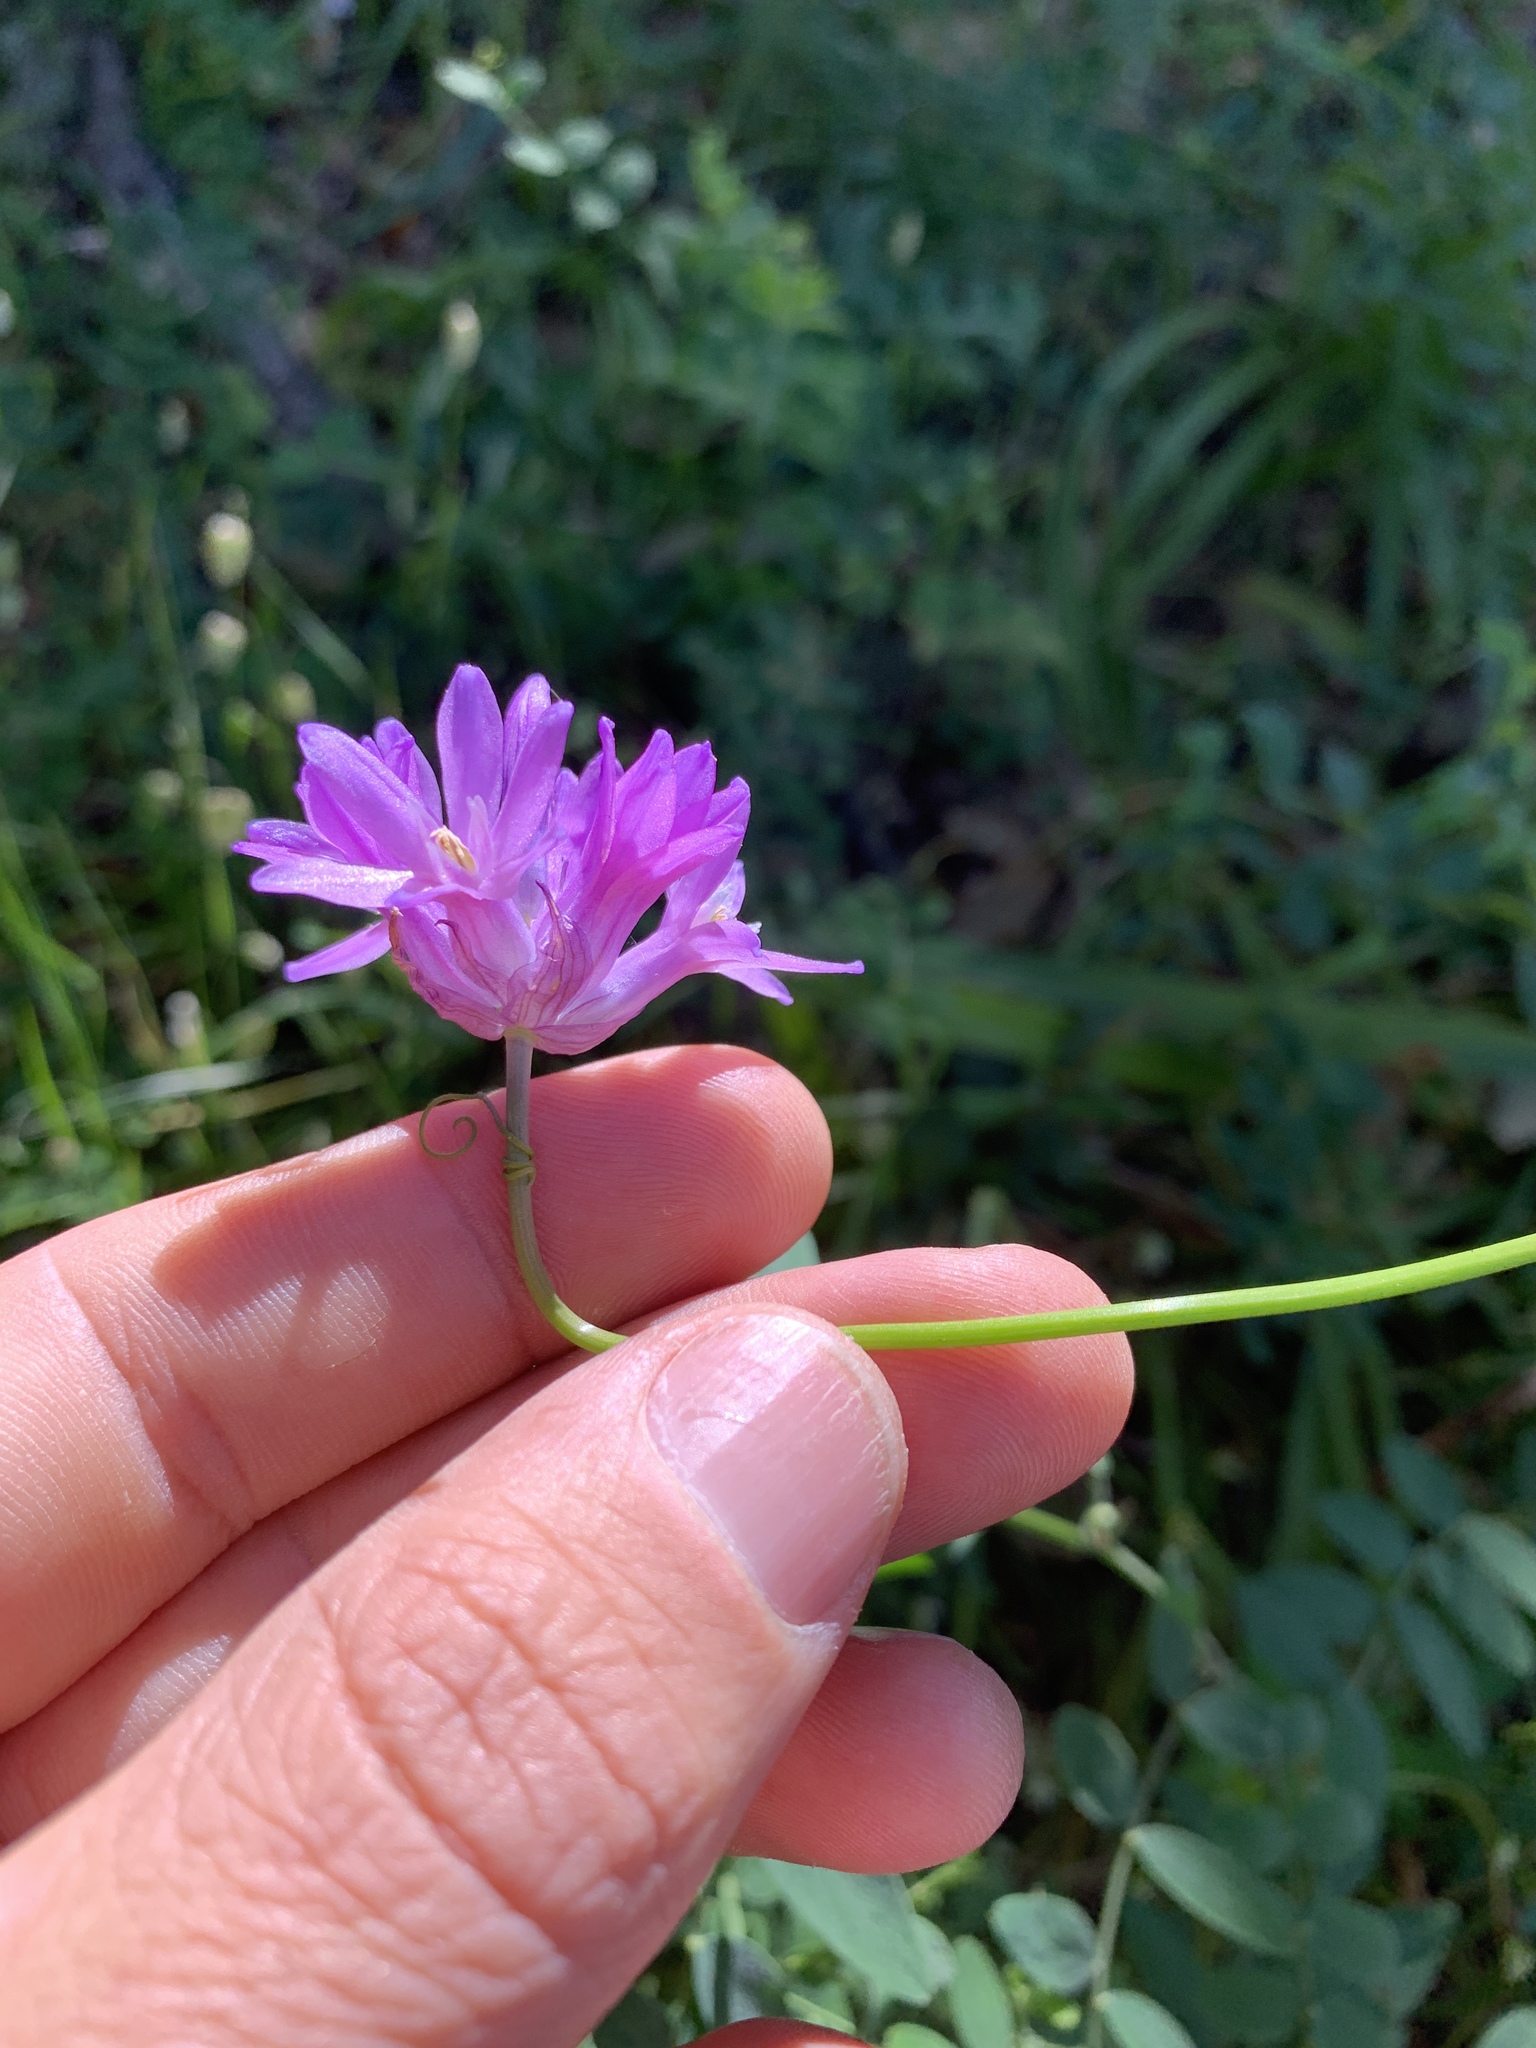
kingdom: Plantae
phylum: Tracheophyta
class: Liliopsida
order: Asparagales
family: Asparagaceae
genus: Dichelostemma
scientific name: Dichelostemma congestum
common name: Fork-tooth ookow
